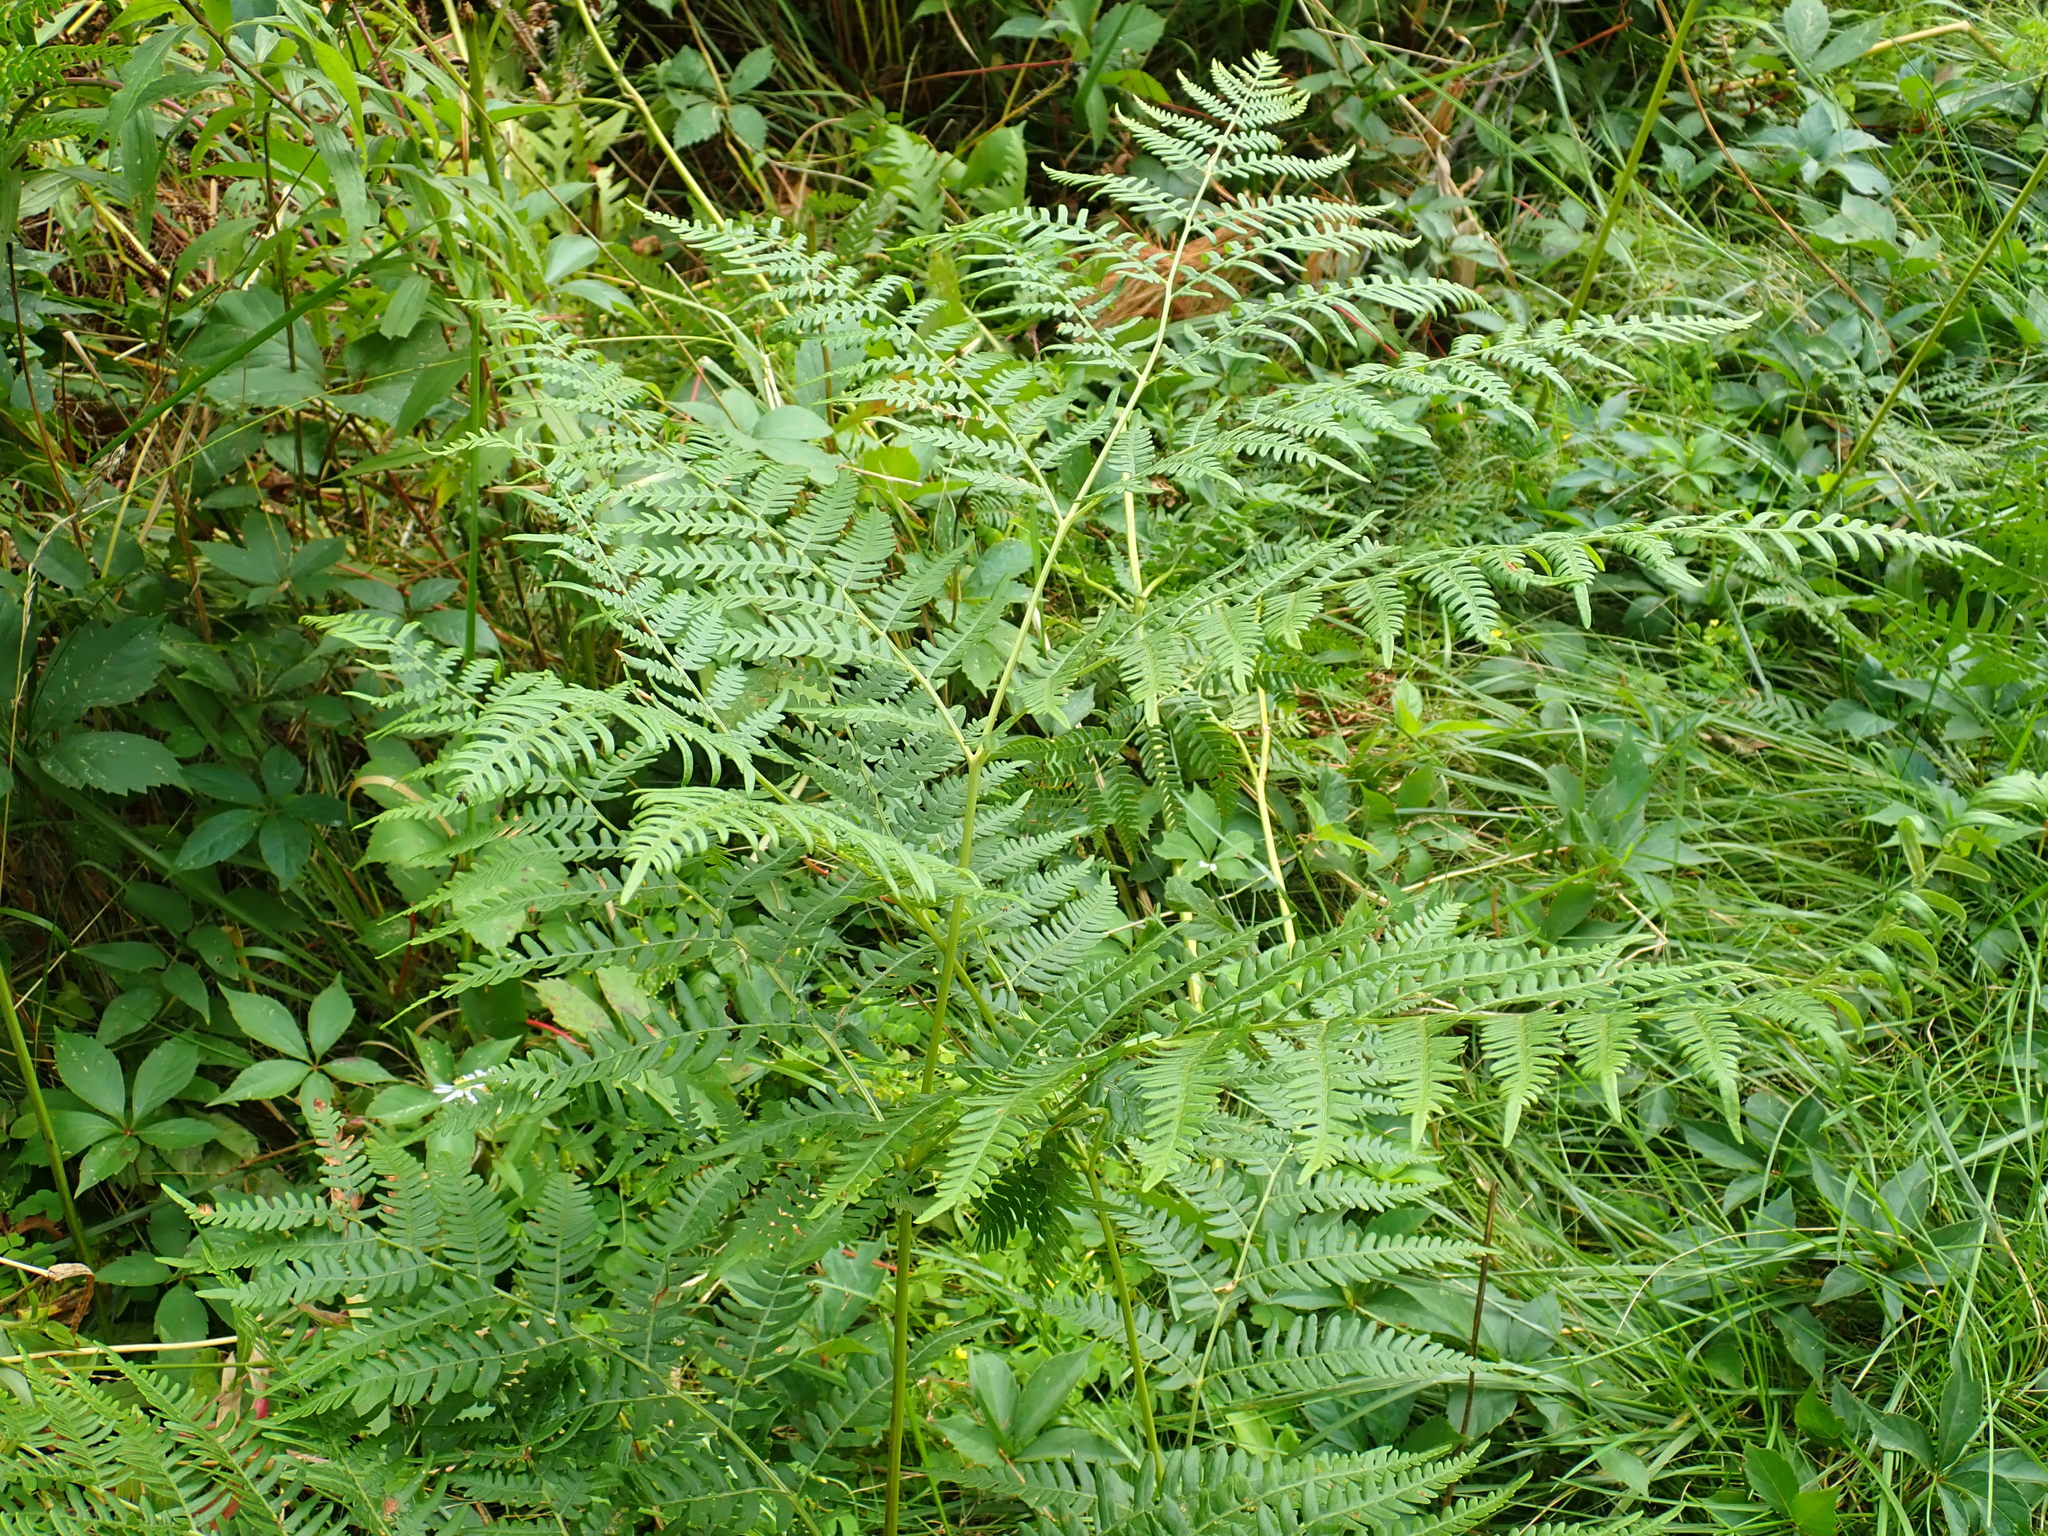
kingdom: Plantae
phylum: Tracheophyta
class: Polypodiopsida
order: Polypodiales
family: Dennstaedtiaceae
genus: Pteridium
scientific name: Pteridium aquilinum
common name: Bracken
